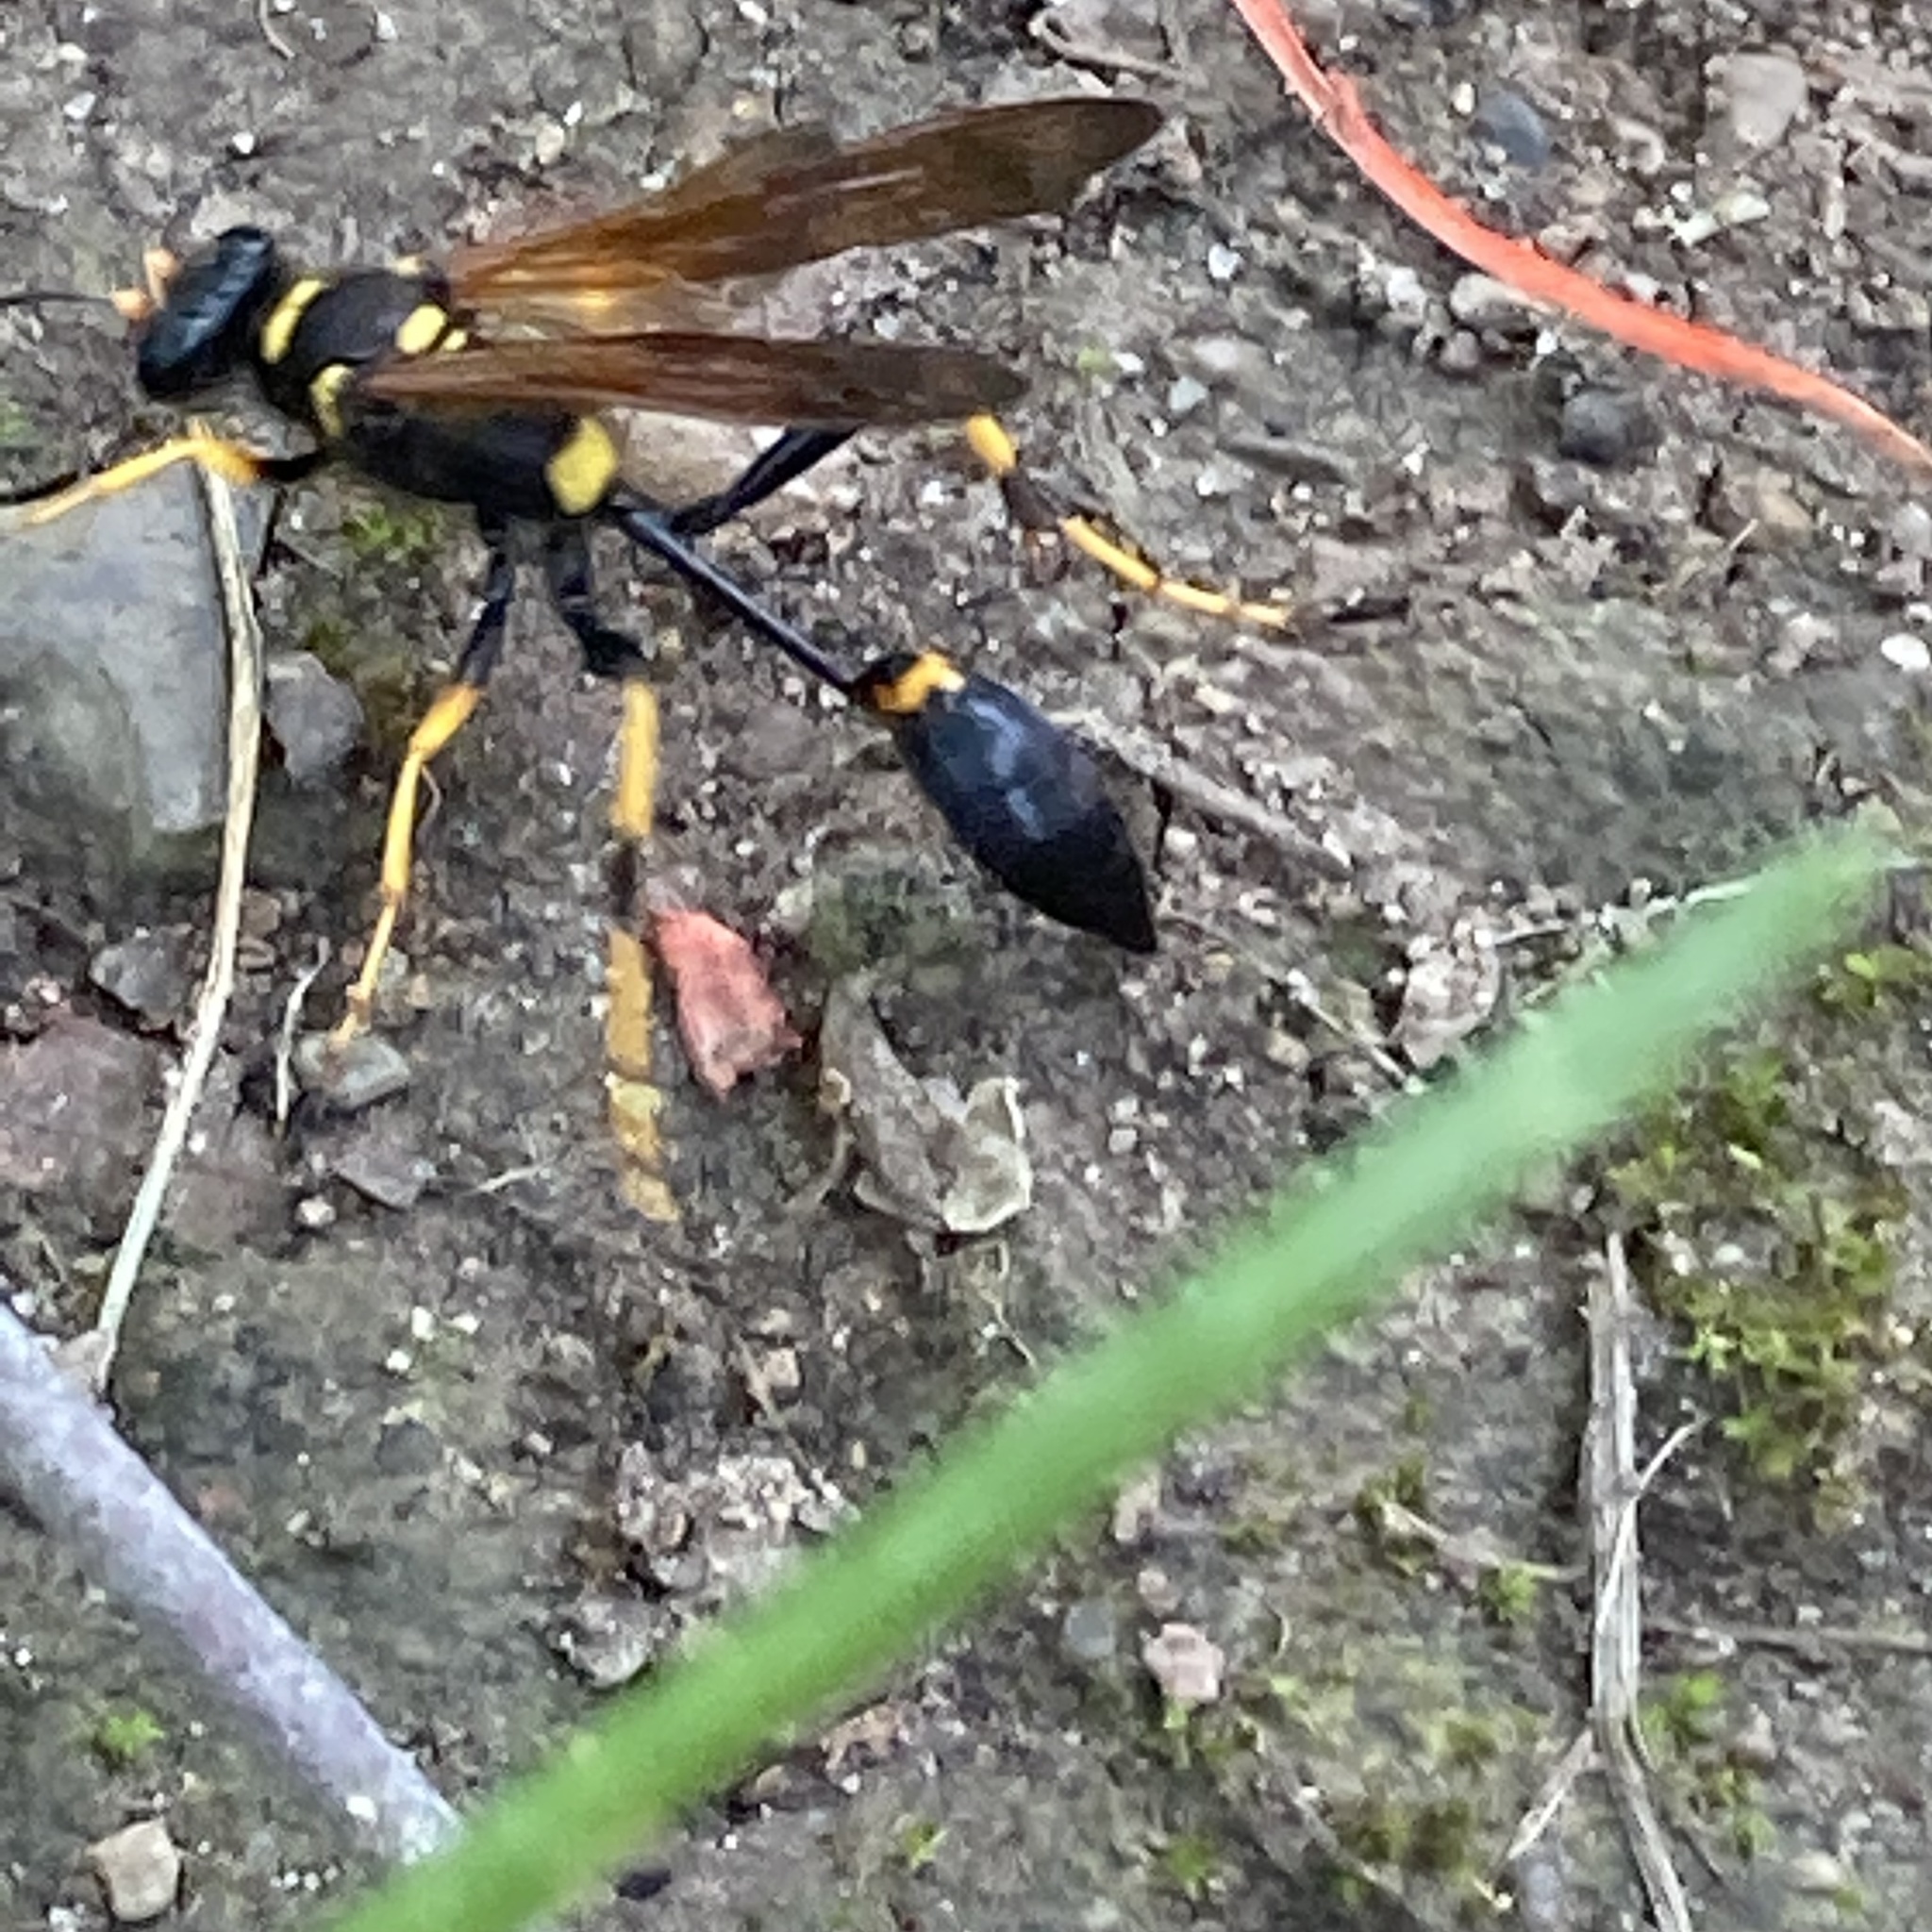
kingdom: Animalia
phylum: Arthropoda
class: Insecta
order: Hymenoptera
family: Sphecidae
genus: Sceliphron
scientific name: Sceliphron caementarium
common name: Mud dauber
